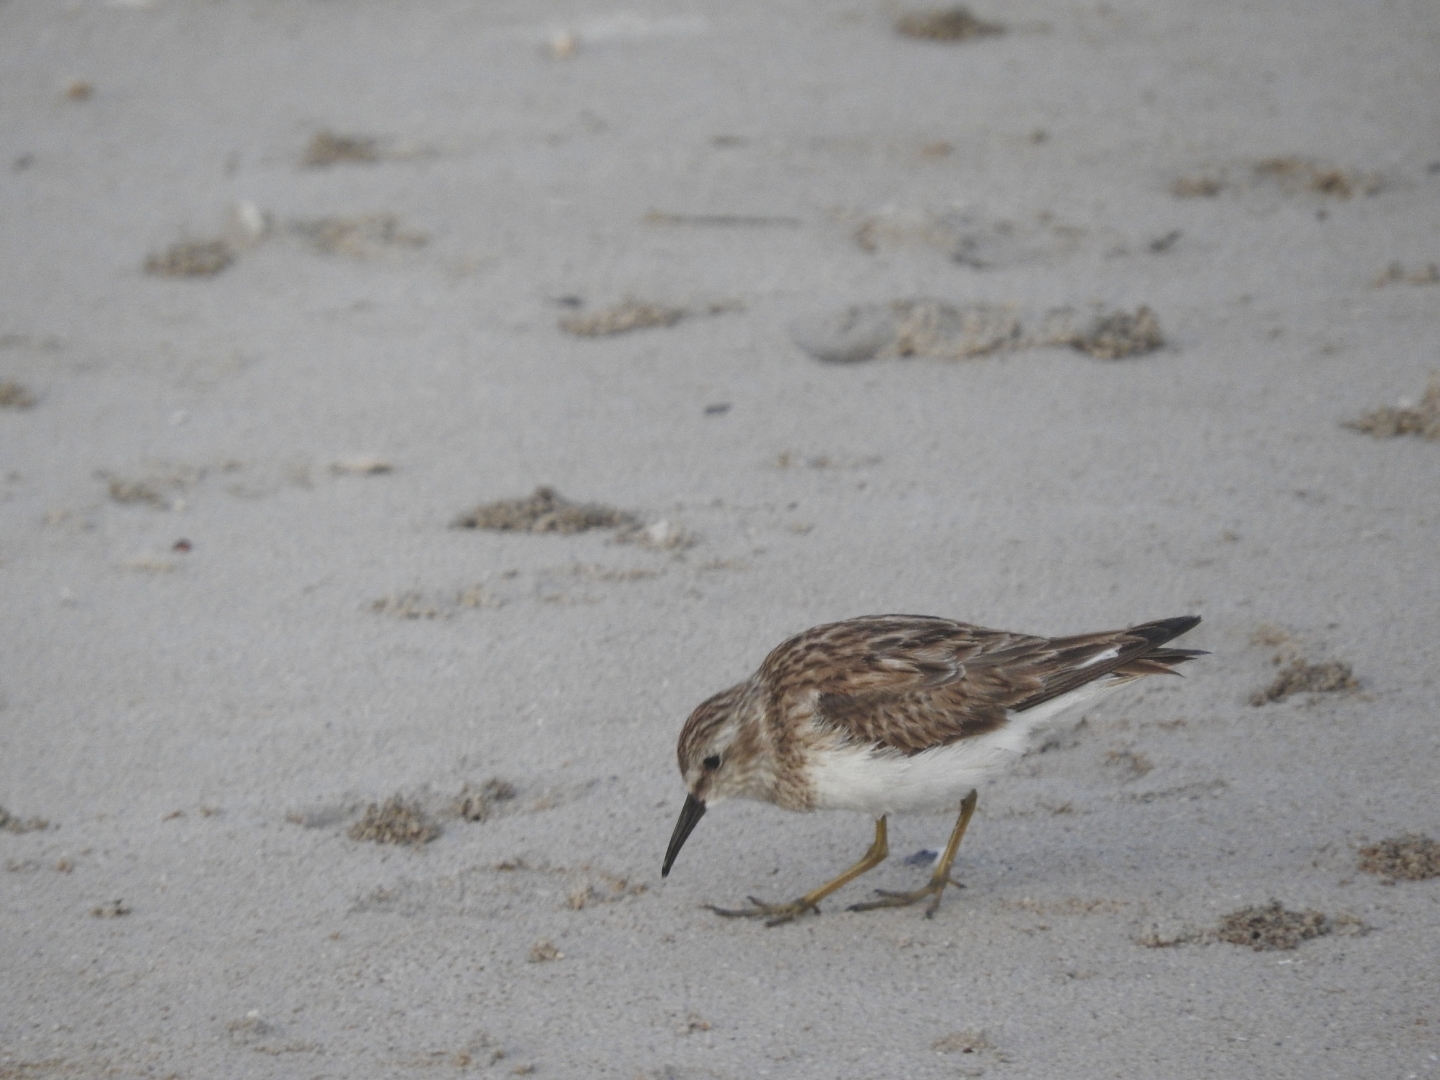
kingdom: Animalia
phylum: Chordata
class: Aves
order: Charadriiformes
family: Scolopacidae
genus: Calidris
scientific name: Calidris minutilla
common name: Least sandpiper
